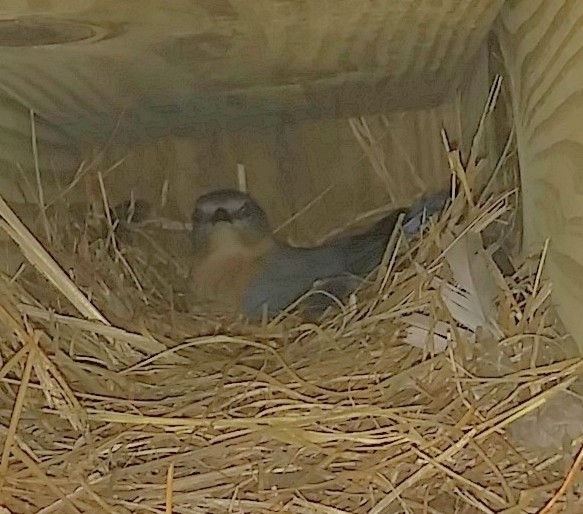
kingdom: Animalia
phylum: Chordata
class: Aves
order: Passeriformes
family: Turdidae
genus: Sialia
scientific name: Sialia sialis
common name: Eastern bluebird
